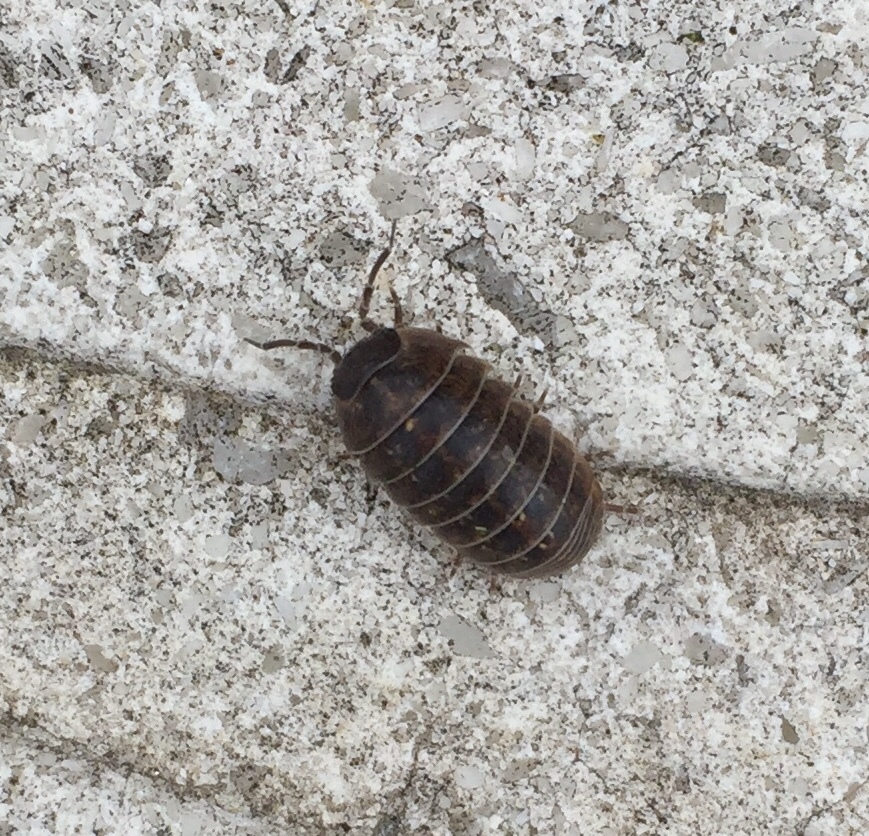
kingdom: Animalia
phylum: Arthropoda
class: Malacostraca
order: Isopoda
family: Armadillidiidae
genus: Armadillidium
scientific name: Armadillidium vulgare
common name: Common pill woodlouse
